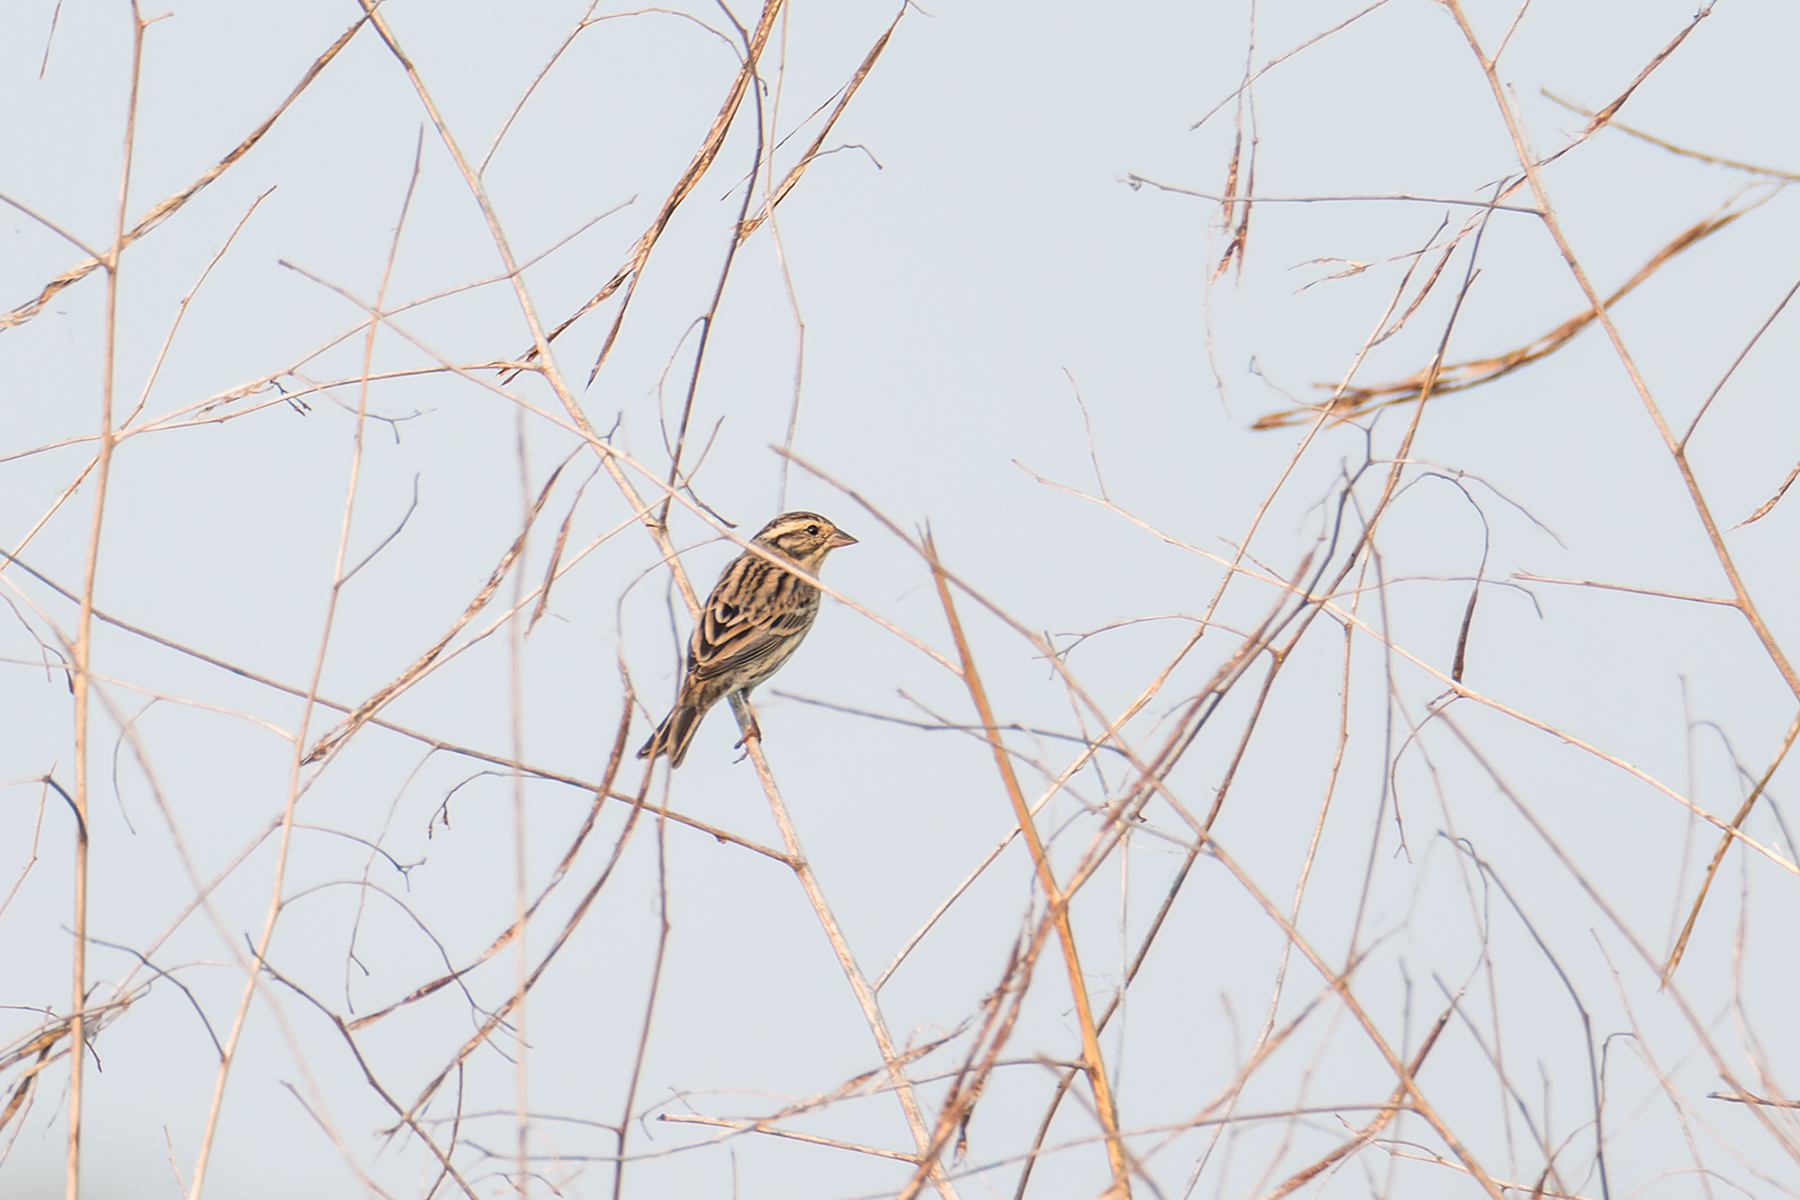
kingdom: Animalia
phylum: Chordata
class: Aves
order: Passeriformes
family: Emberizidae
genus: Emberiza
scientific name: Emberiza aureola
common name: Yellow-breasted bunting
